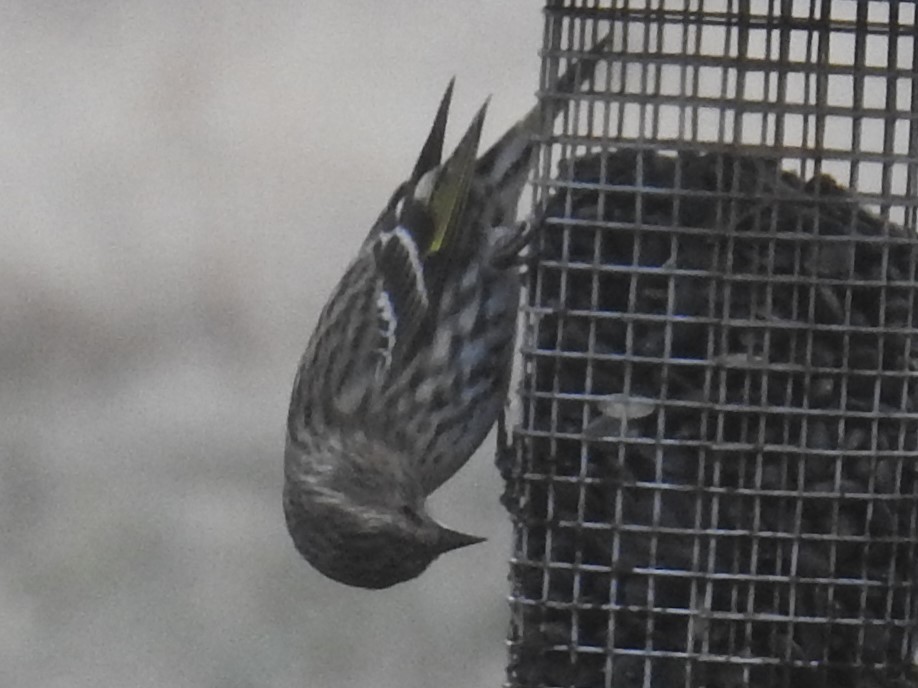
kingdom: Animalia
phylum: Chordata
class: Aves
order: Passeriformes
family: Fringillidae
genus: Spinus
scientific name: Spinus pinus
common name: Pine siskin
